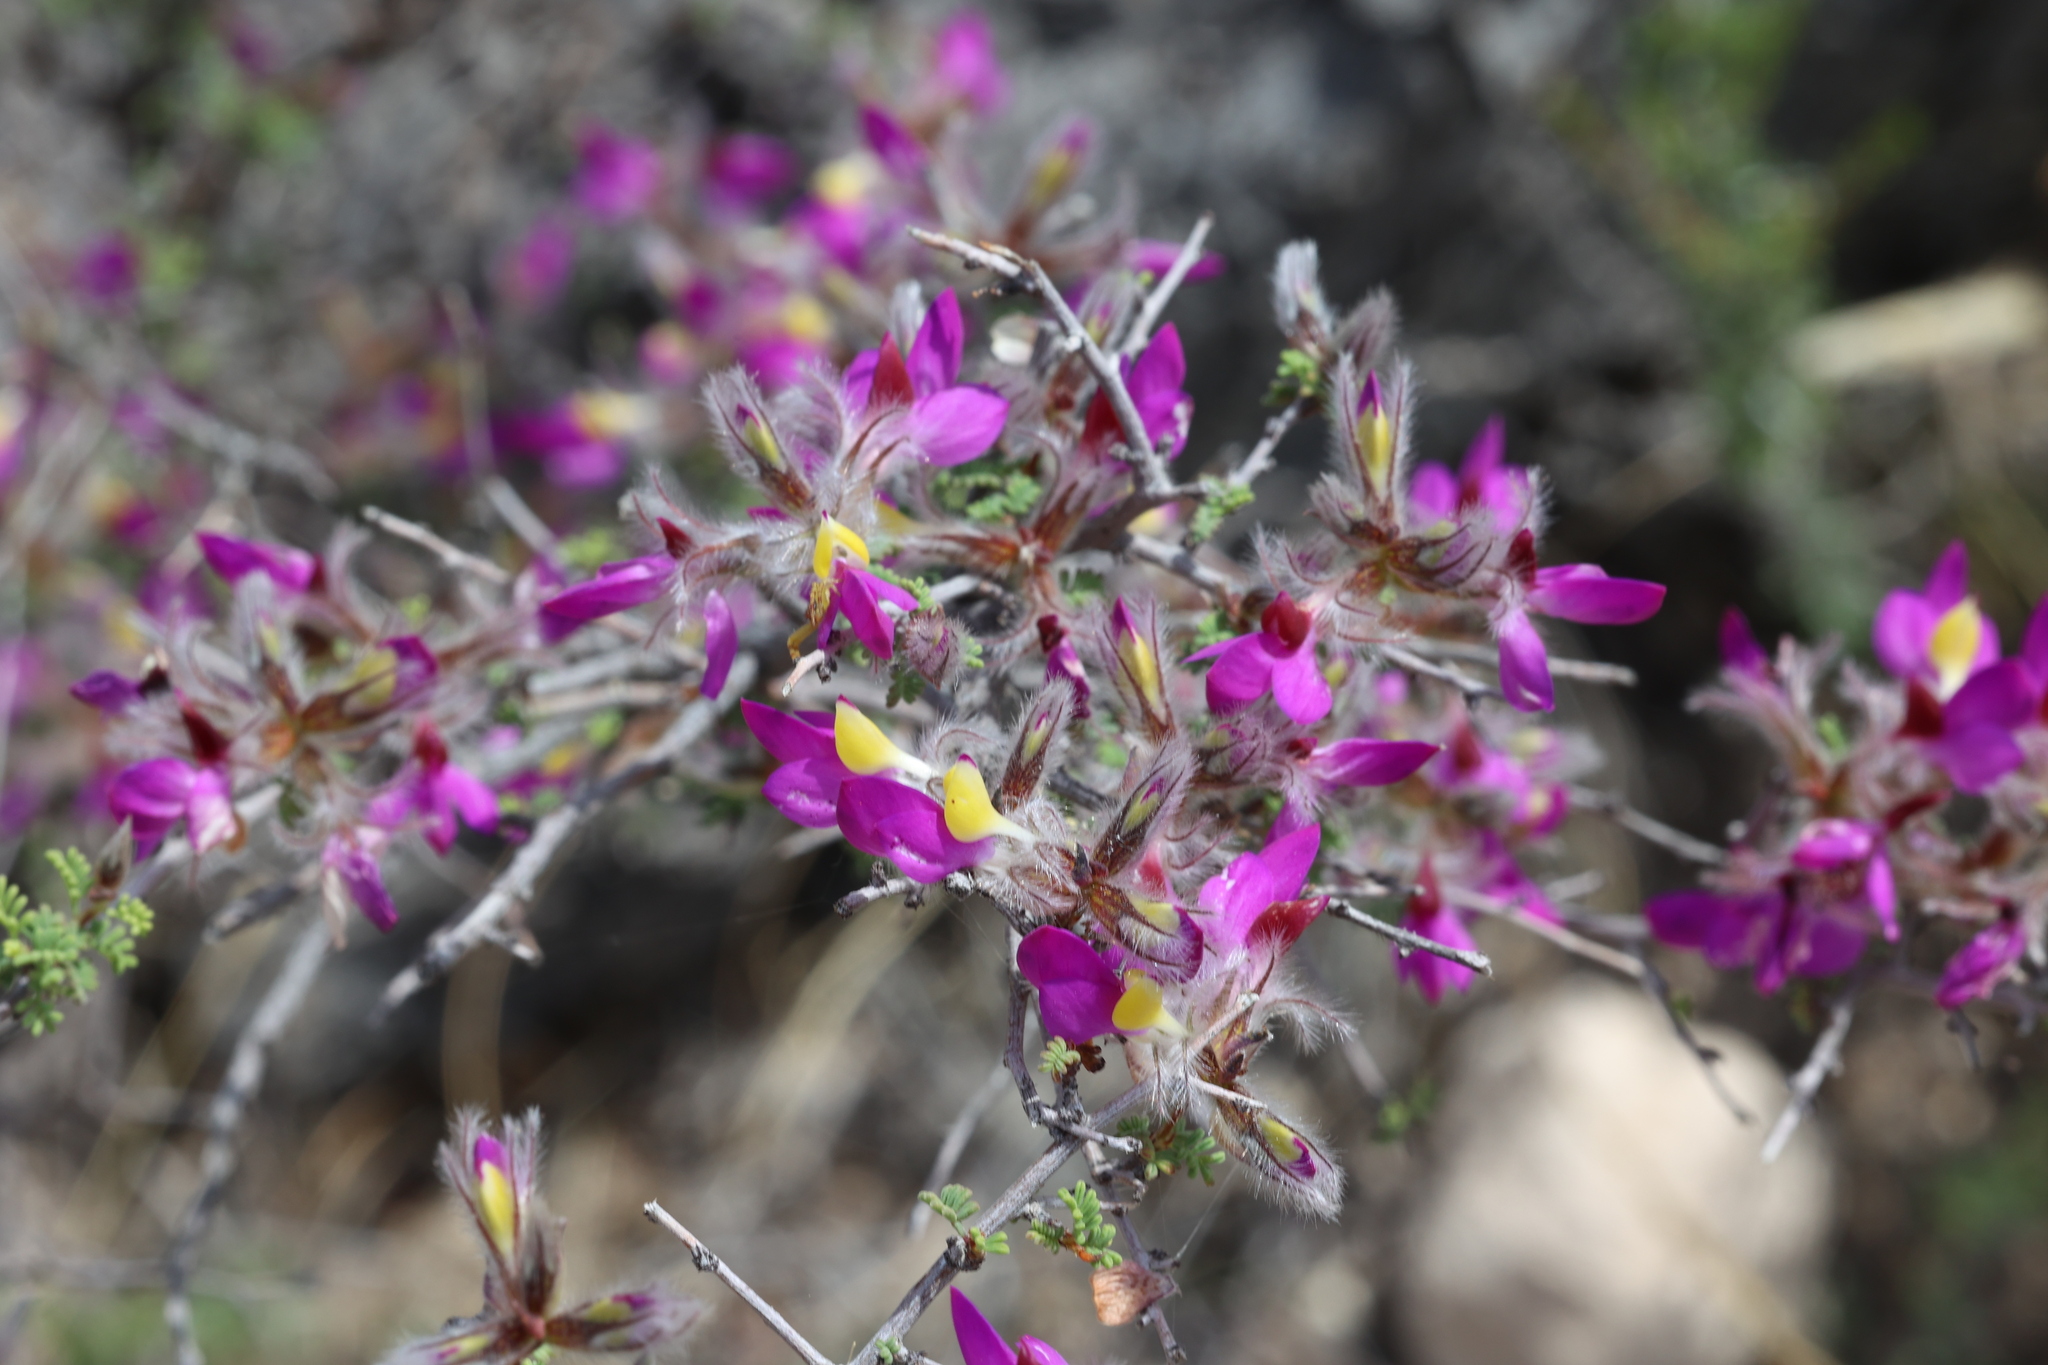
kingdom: Plantae
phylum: Tracheophyta
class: Magnoliopsida
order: Fabales
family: Fabaceae
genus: Dalea
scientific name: Dalea formosa
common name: Feather-plume dalea
